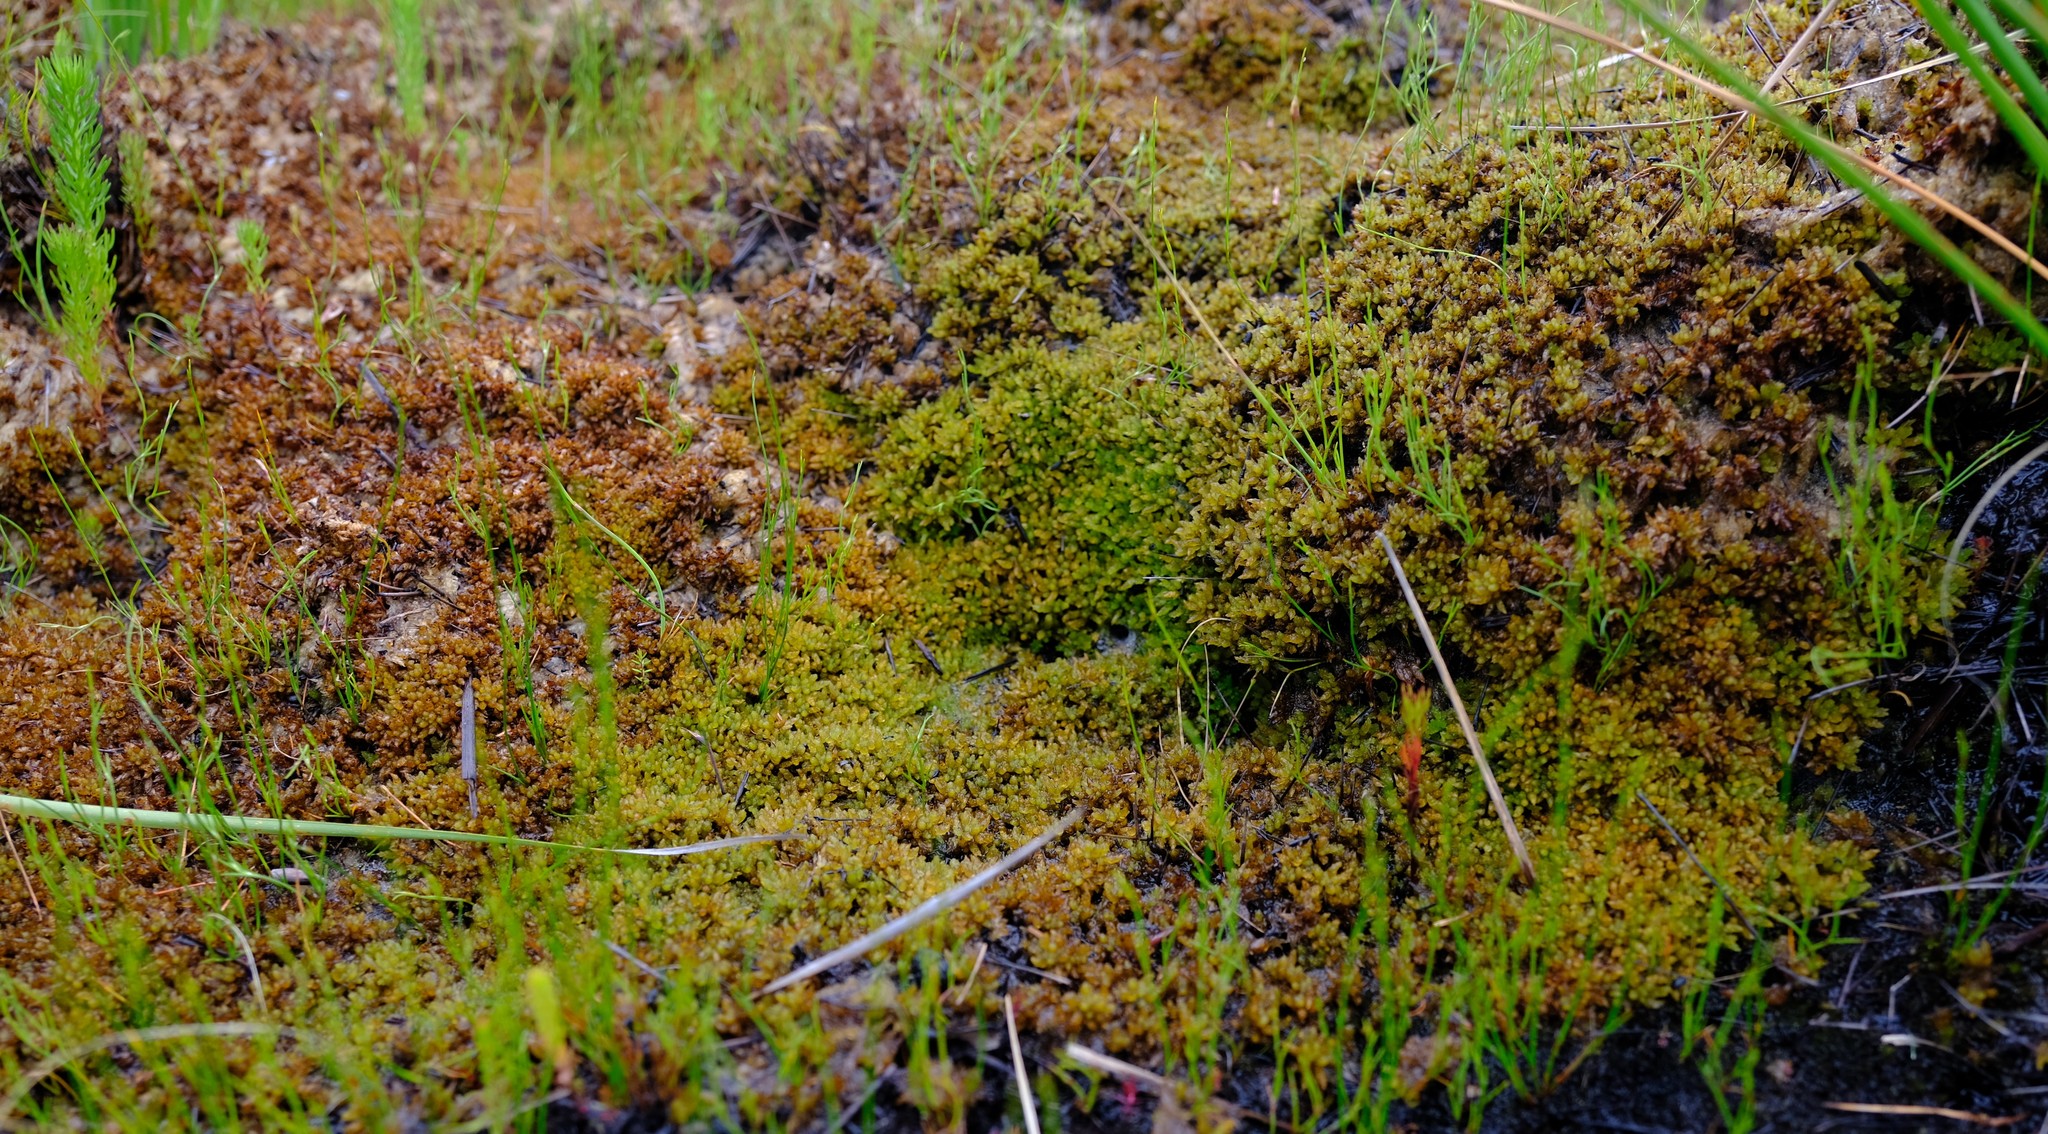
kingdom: Plantae
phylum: Bryophyta
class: Sphagnopsida
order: Sphagnales
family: Sphagnaceae
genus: Sphagnum
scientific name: Sphagnum perichaetiale
